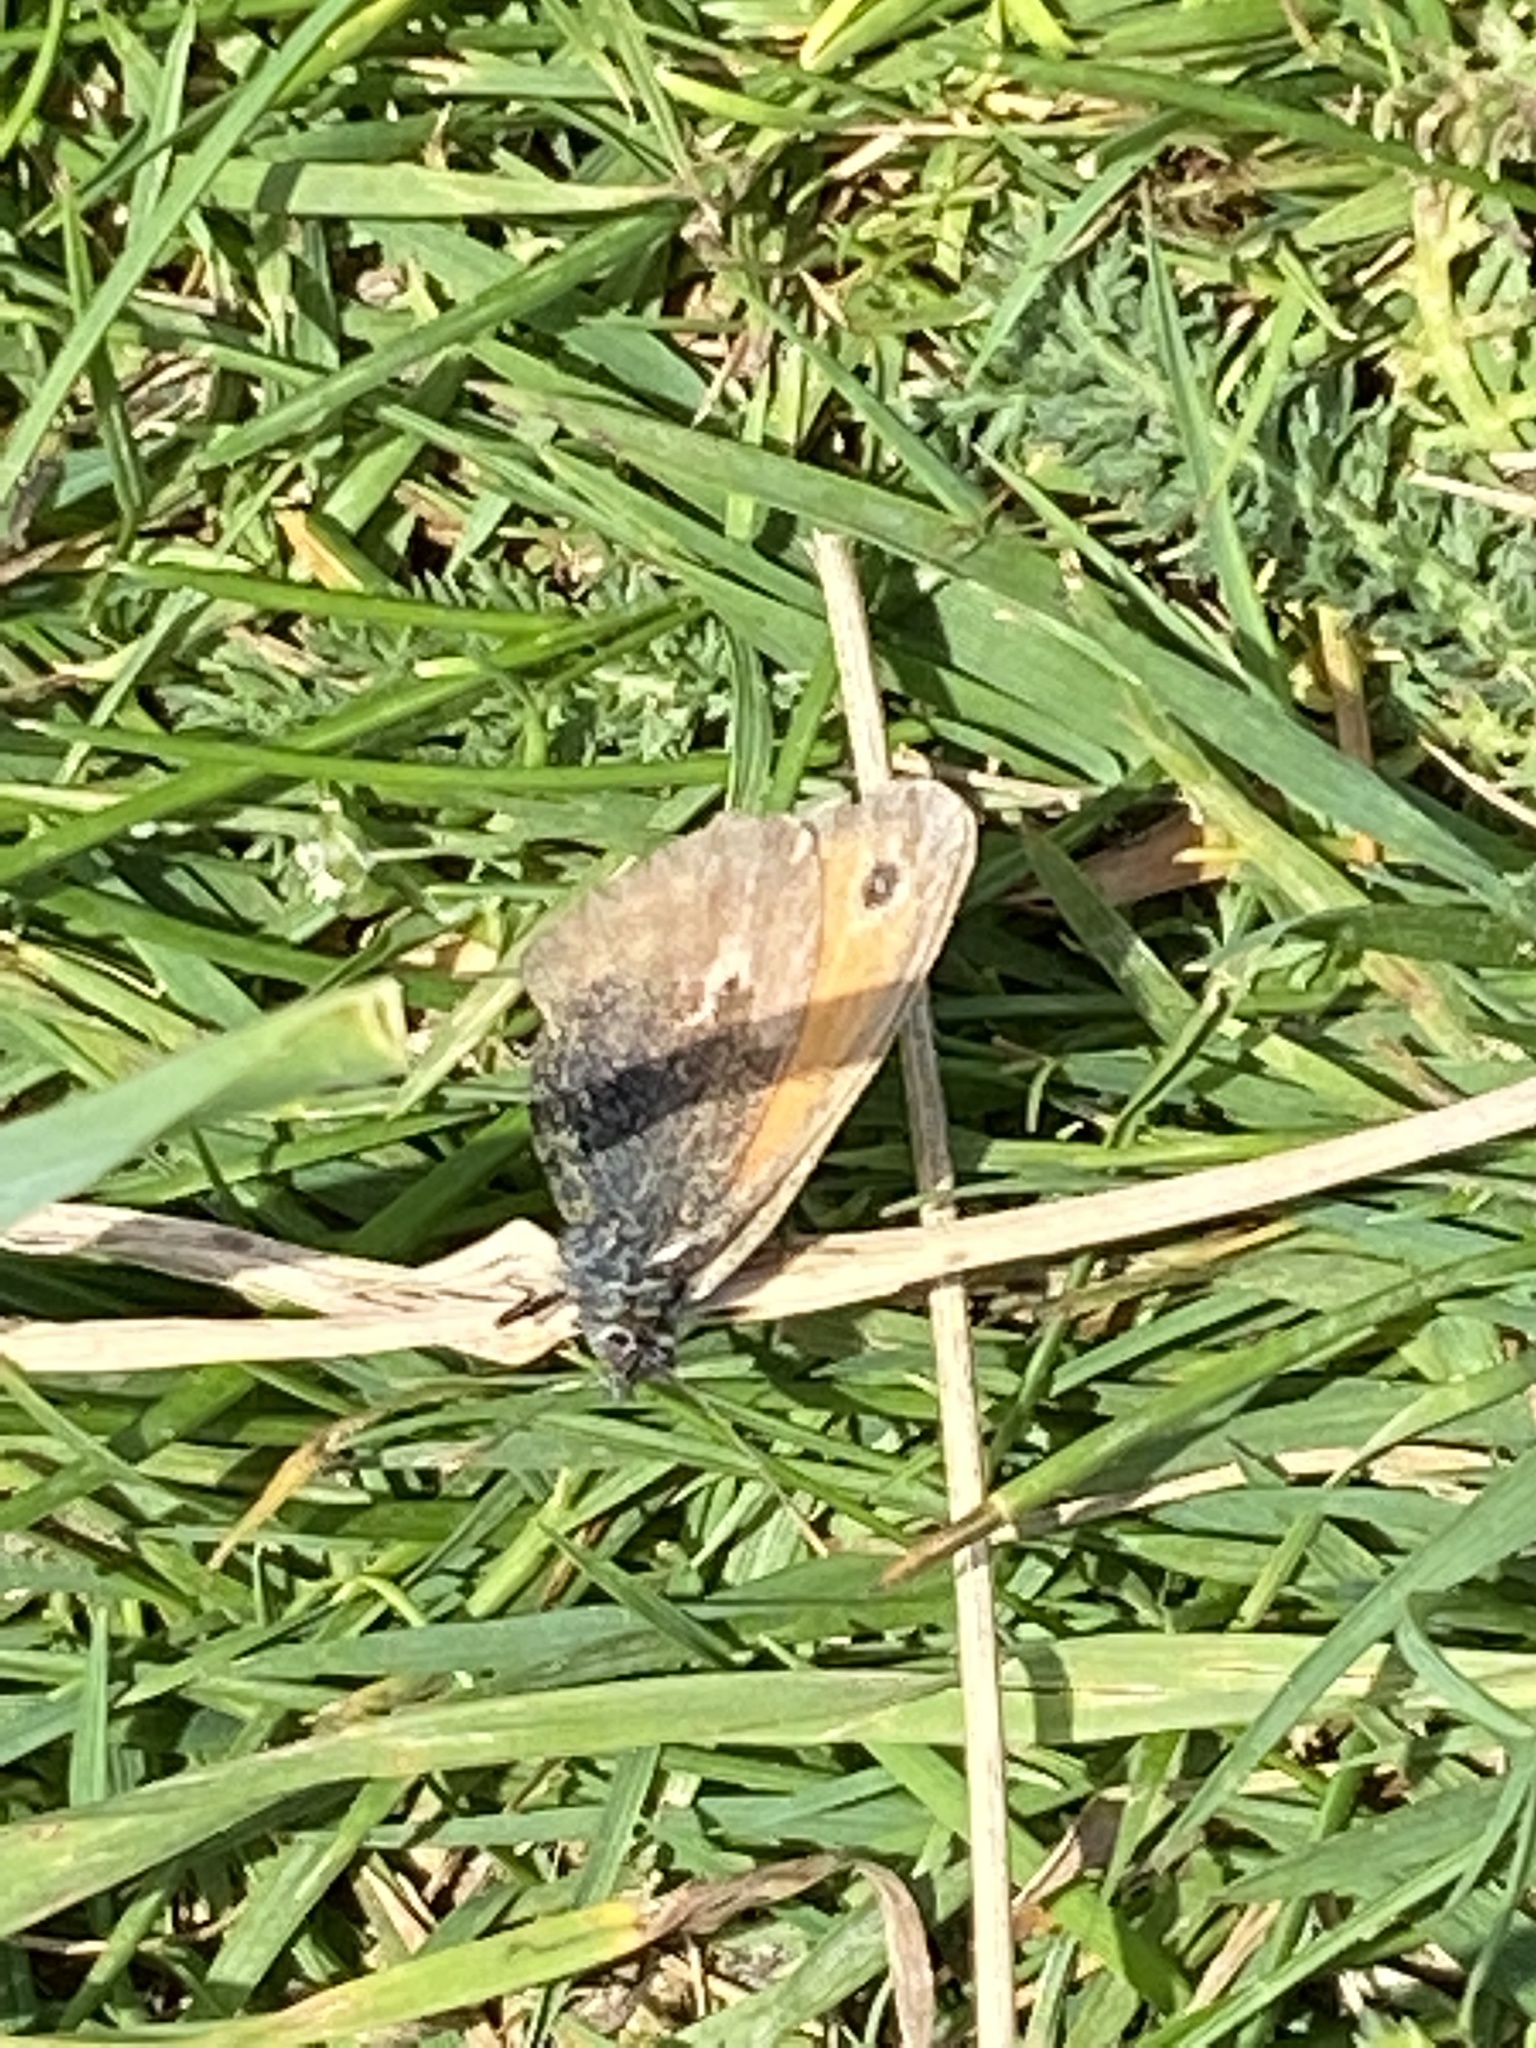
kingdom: Animalia
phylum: Arthropoda
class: Insecta
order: Lepidoptera
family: Nymphalidae
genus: Coenonympha
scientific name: Coenonympha pamphilus
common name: Small heath
